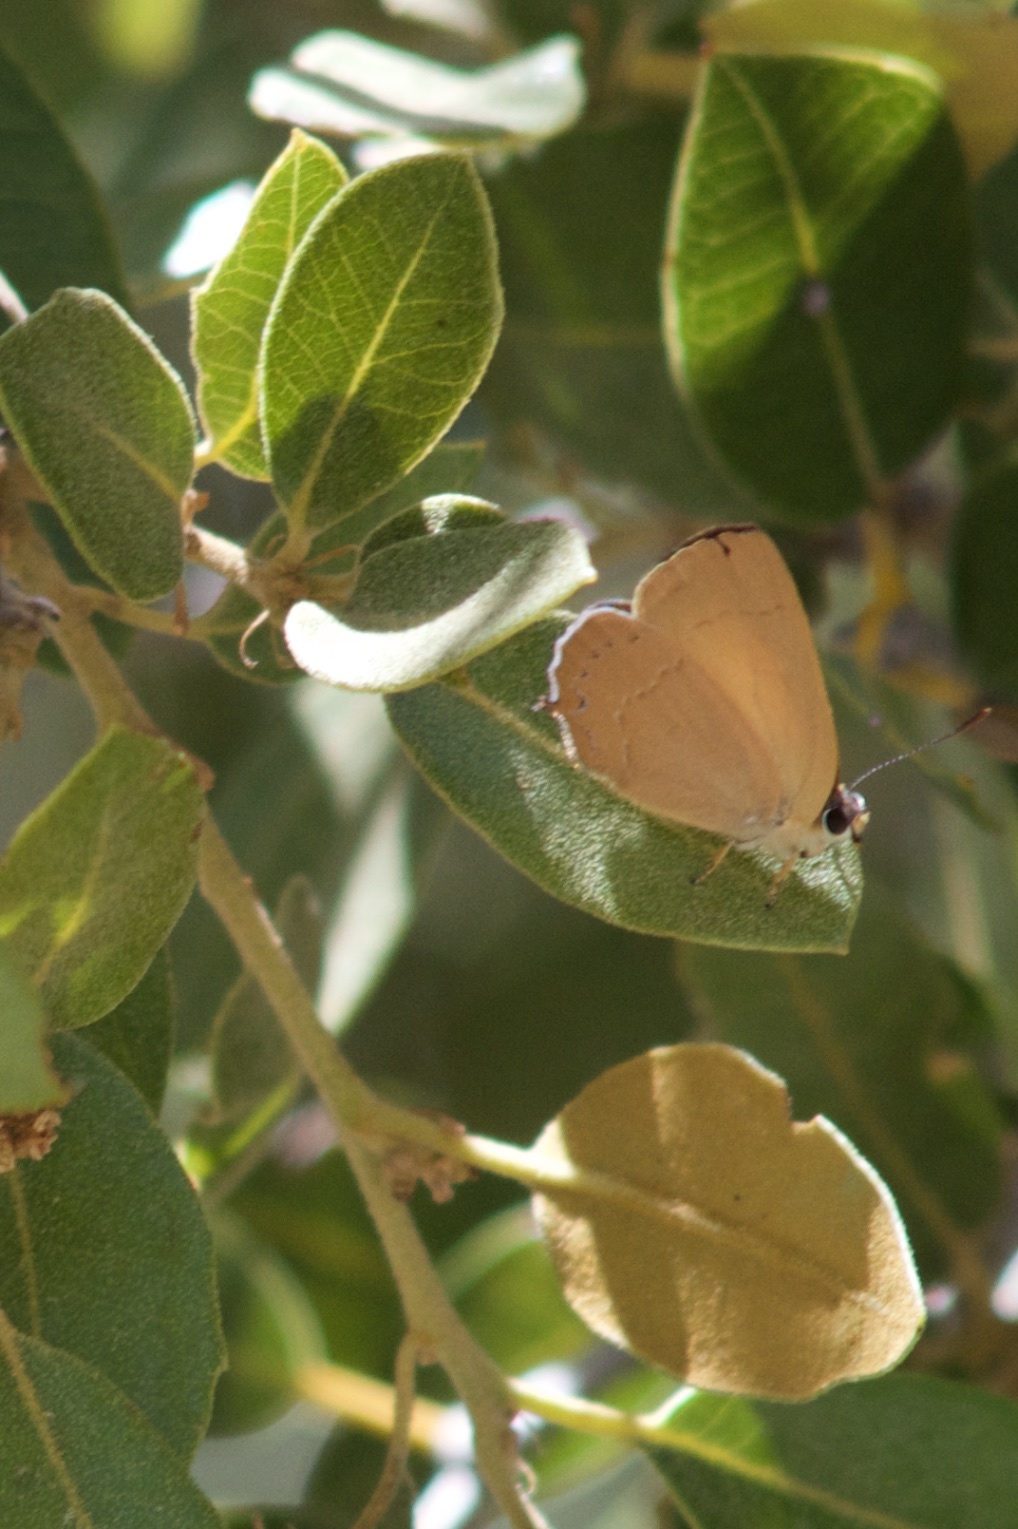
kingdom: Animalia
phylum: Arthropoda
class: Insecta
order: Lepidoptera
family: Lycaenidae
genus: Habrodais
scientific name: Habrodais grunus
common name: Golden hairstreak
